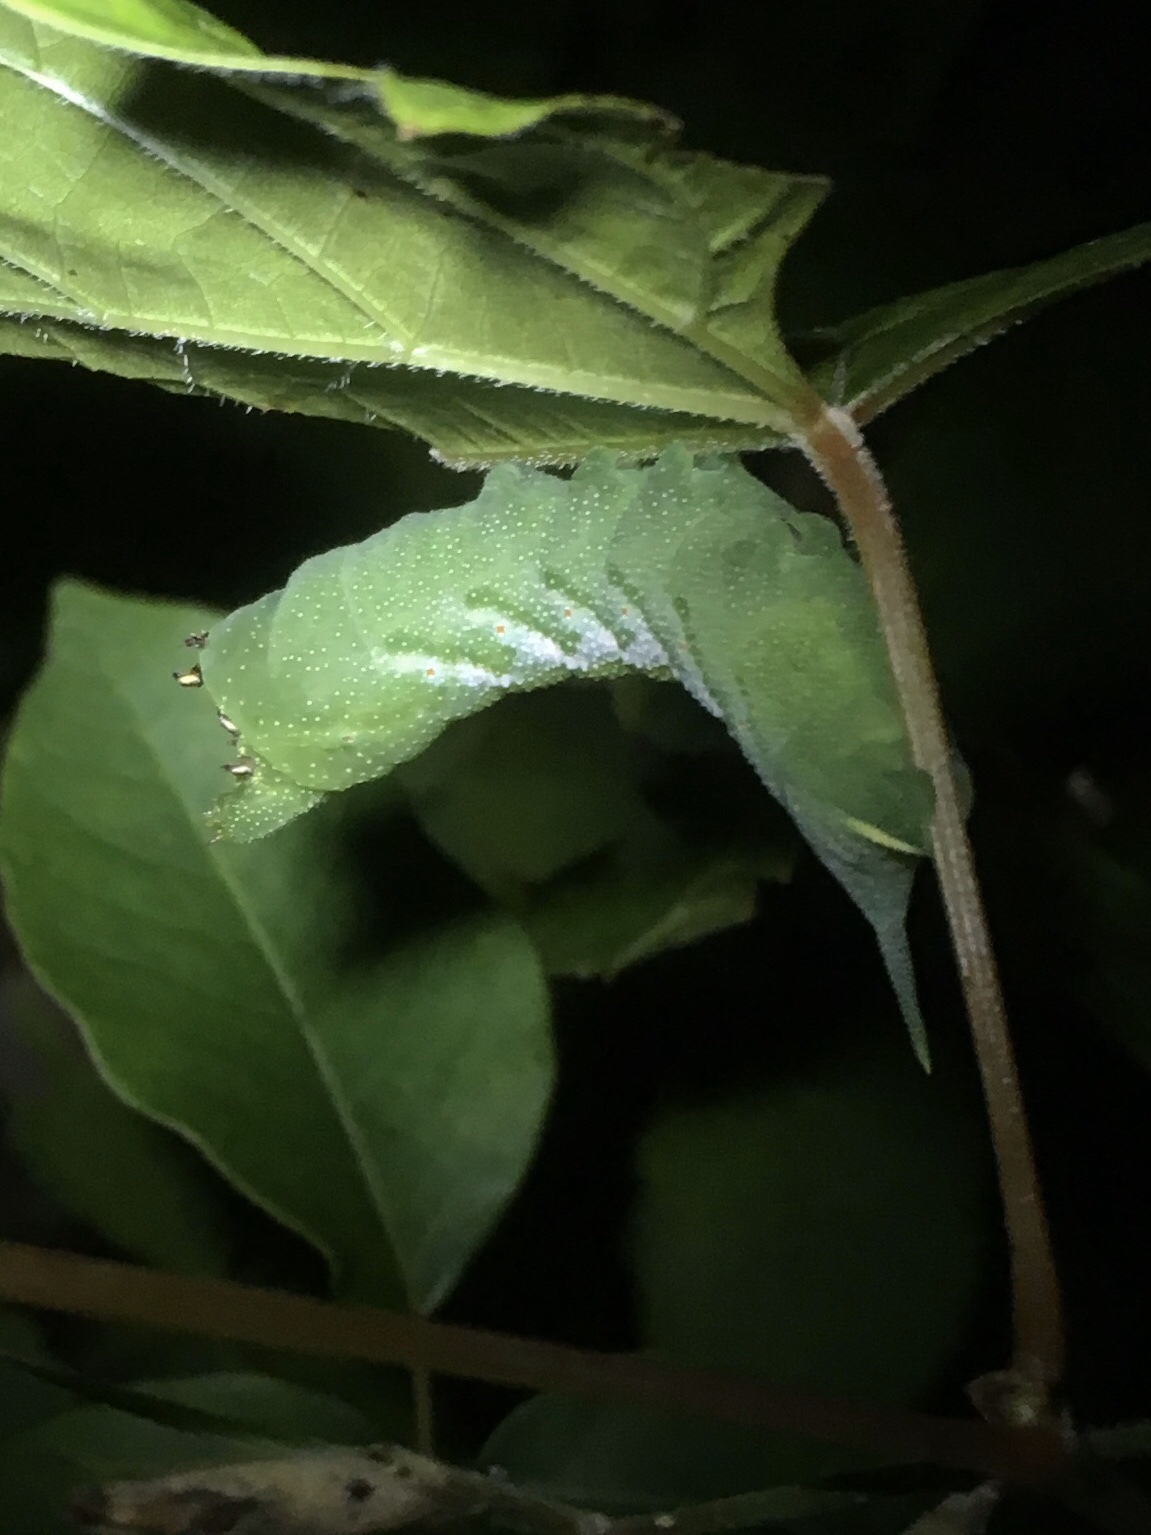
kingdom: Animalia
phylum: Arthropoda
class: Insecta
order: Lepidoptera
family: Sphingidae
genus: Darapsa
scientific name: Darapsa myron
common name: Hog sphinx
